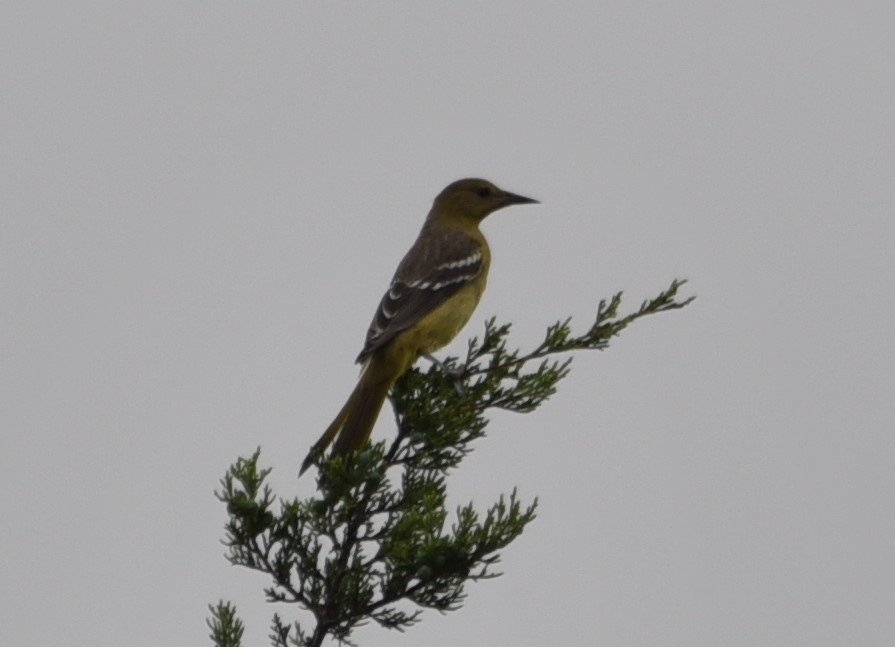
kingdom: Animalia
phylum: Chordata
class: Aves
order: Passeriformes
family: Icteridae
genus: Icterus
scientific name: Icterus parisorum
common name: Scott's oriole
